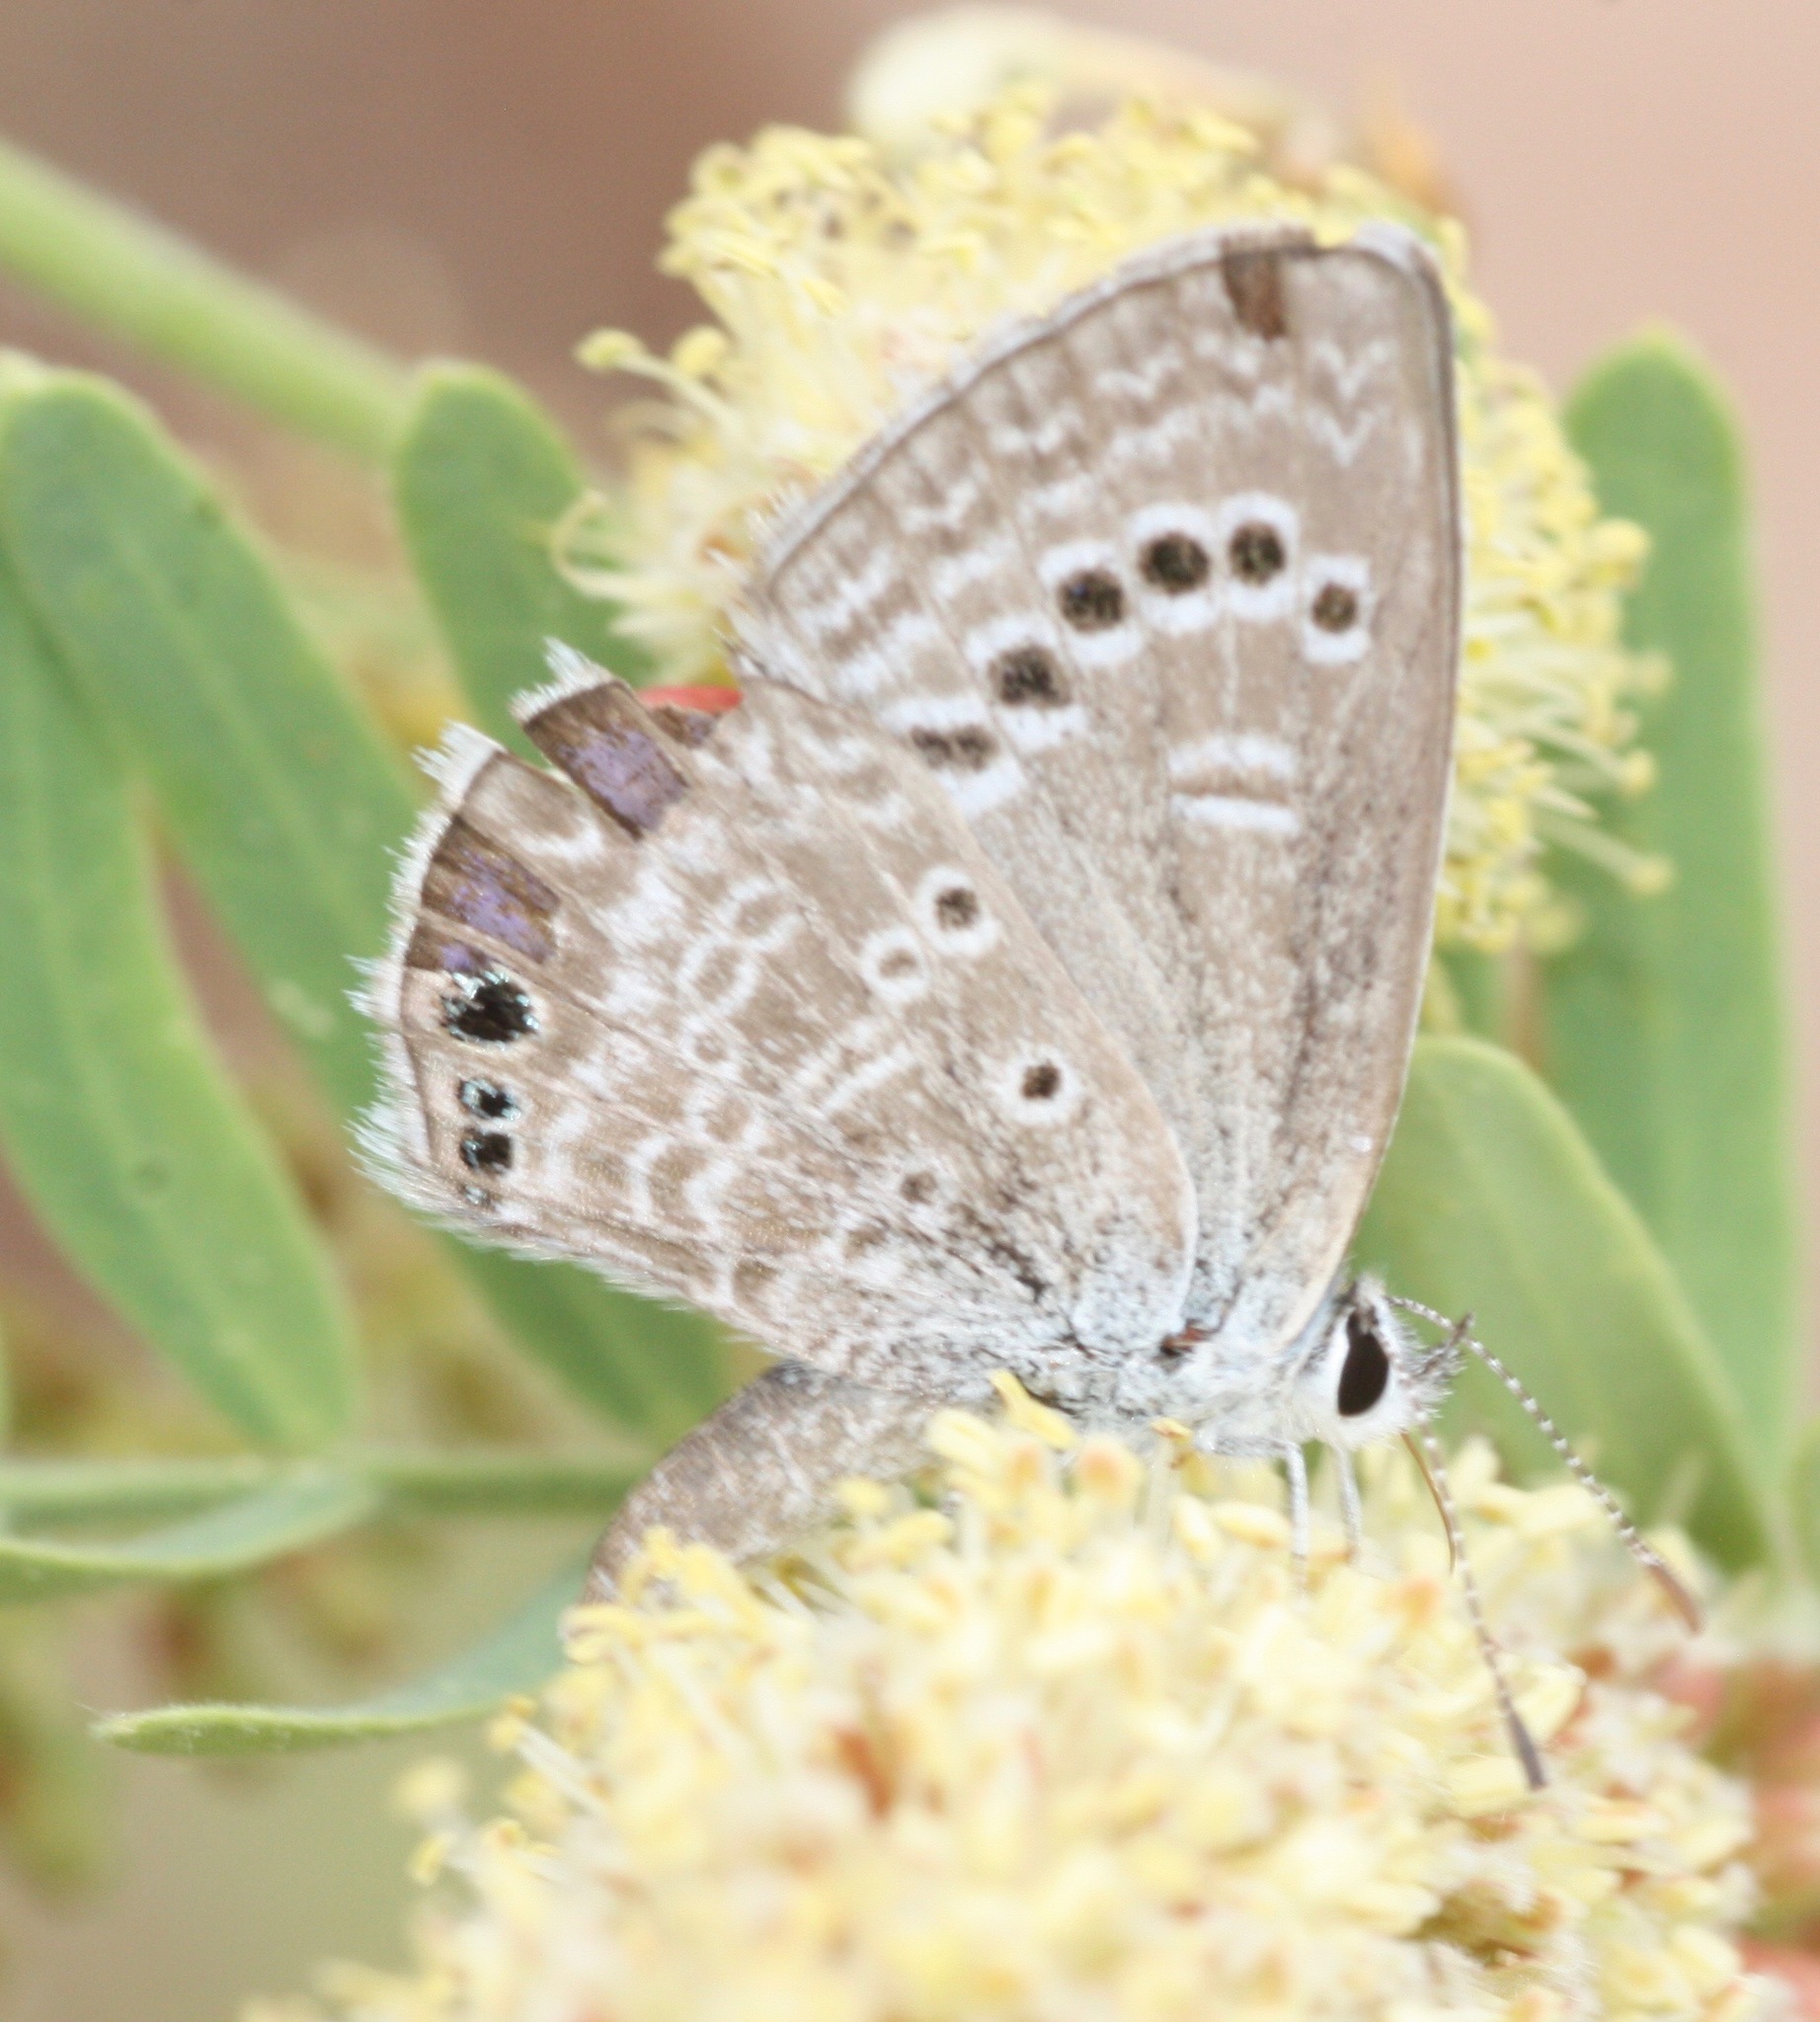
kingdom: Animalia
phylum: Arthropoda
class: Insecta
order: Lepidoptera
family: Lycaenidae
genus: Echinargus
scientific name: Echinargus isola
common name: Reakirt's blue
